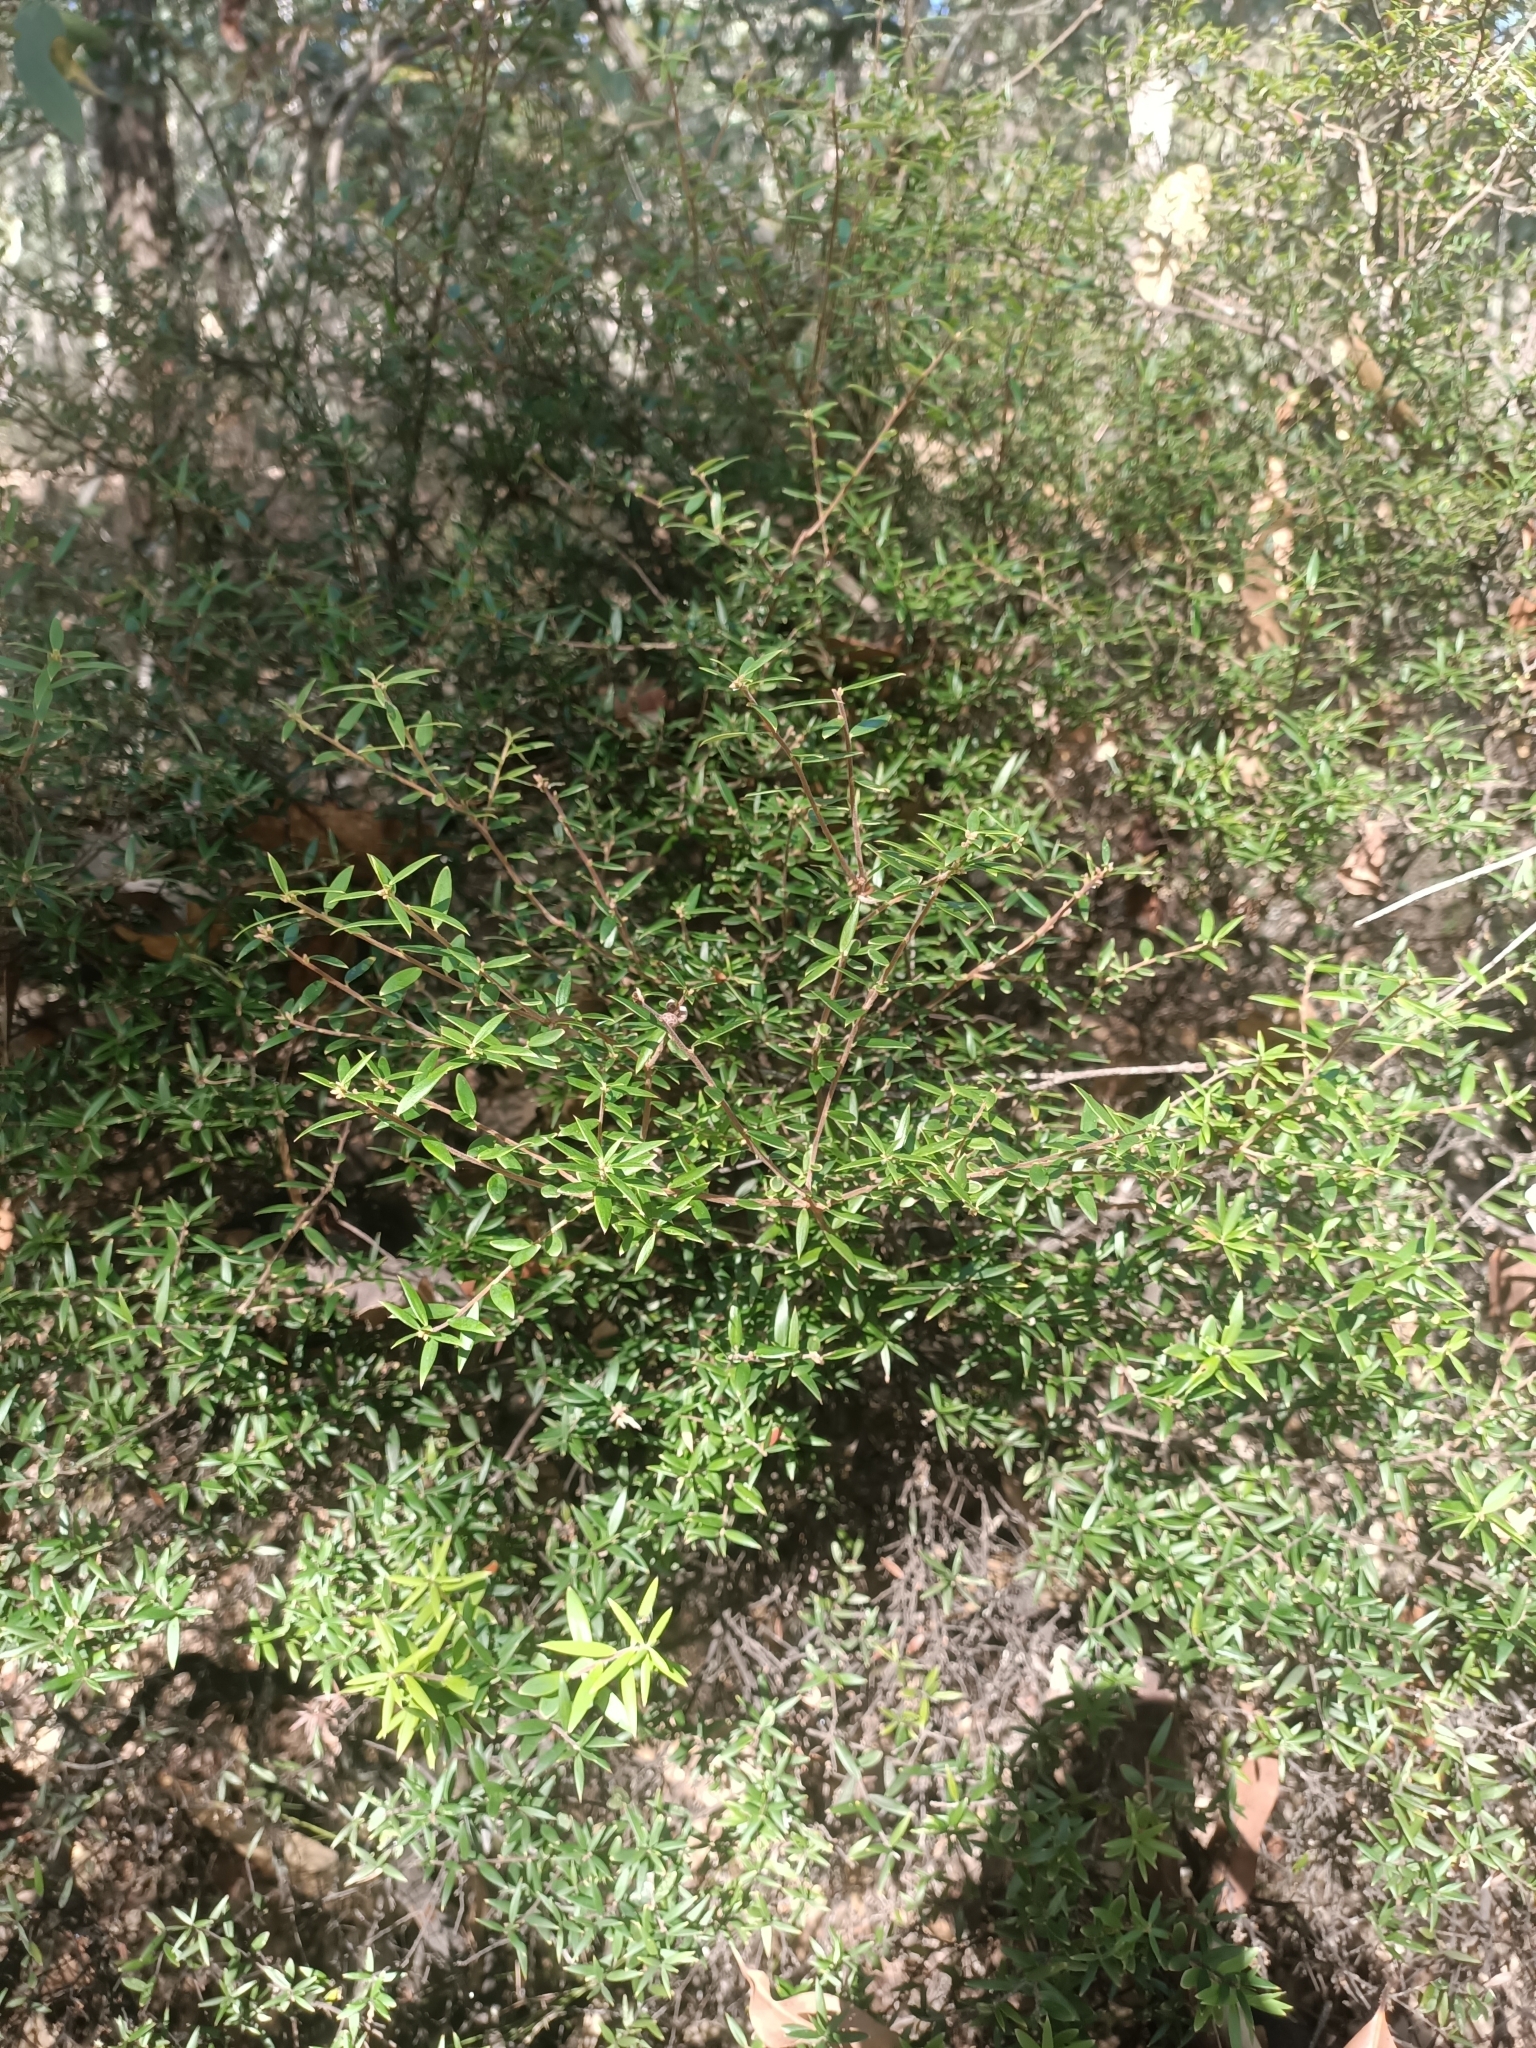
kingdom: Plantae
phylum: Tracheophyta
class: Magnoliopsida
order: Ericales
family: Ericaceae
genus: Acrotriche
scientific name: Acrotriche aggregata
